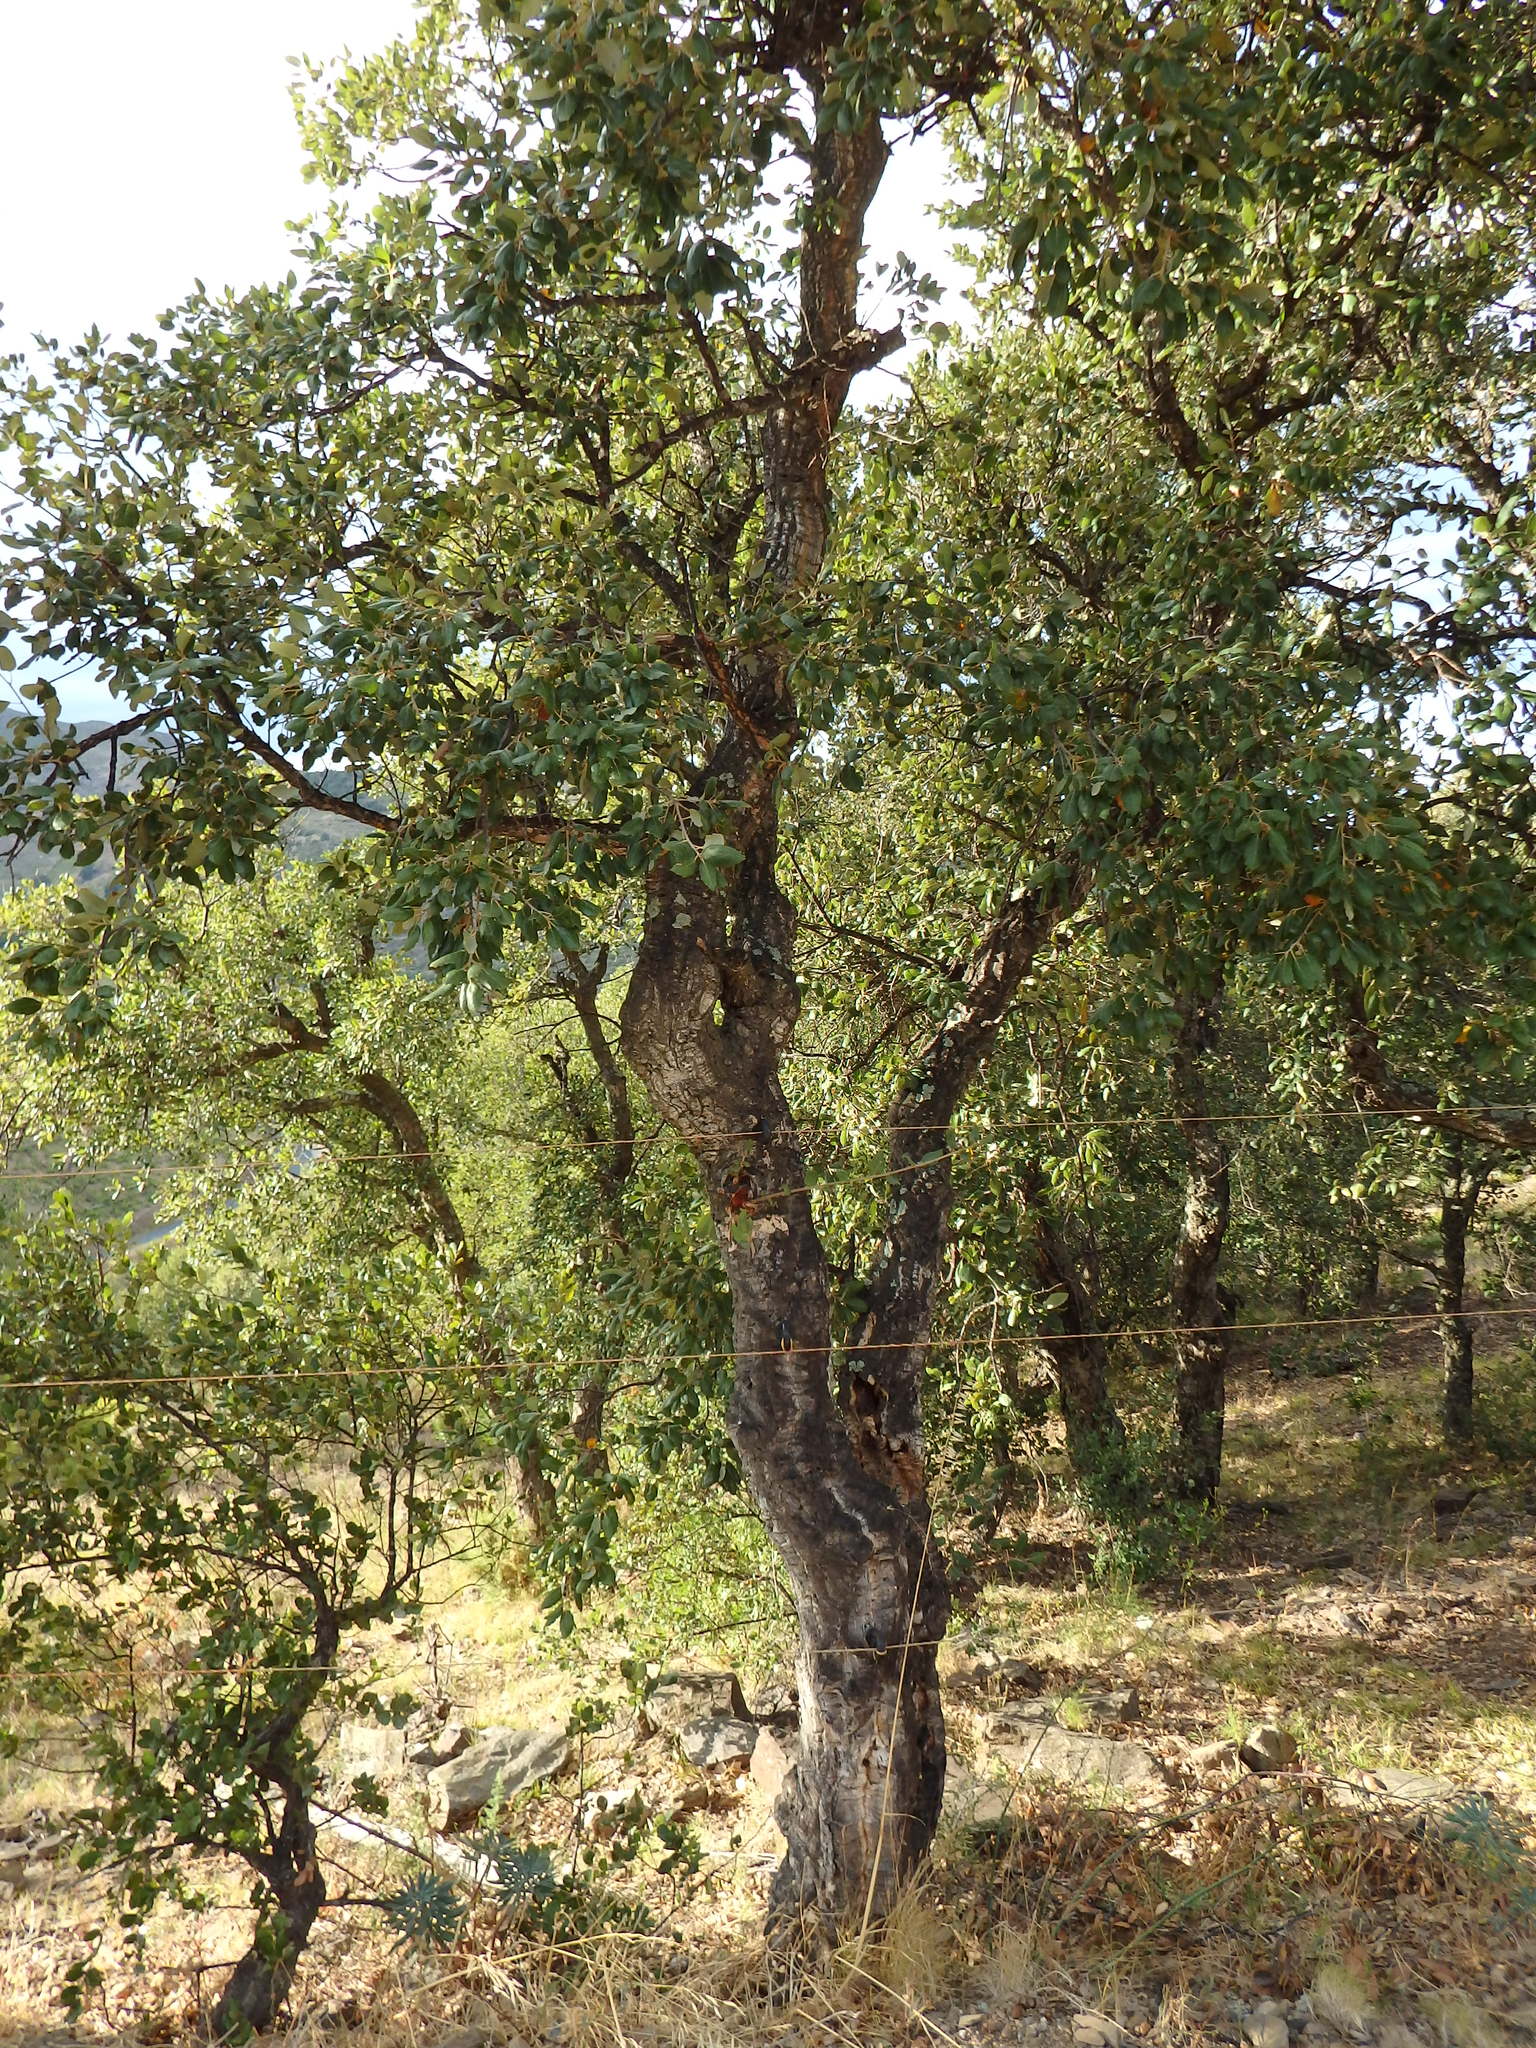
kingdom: Plantae
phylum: Tracheophyta
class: Magnoliopsida
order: Fagales
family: Fagaceae
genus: Quercus
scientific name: Quercus suber
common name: Cork oak
